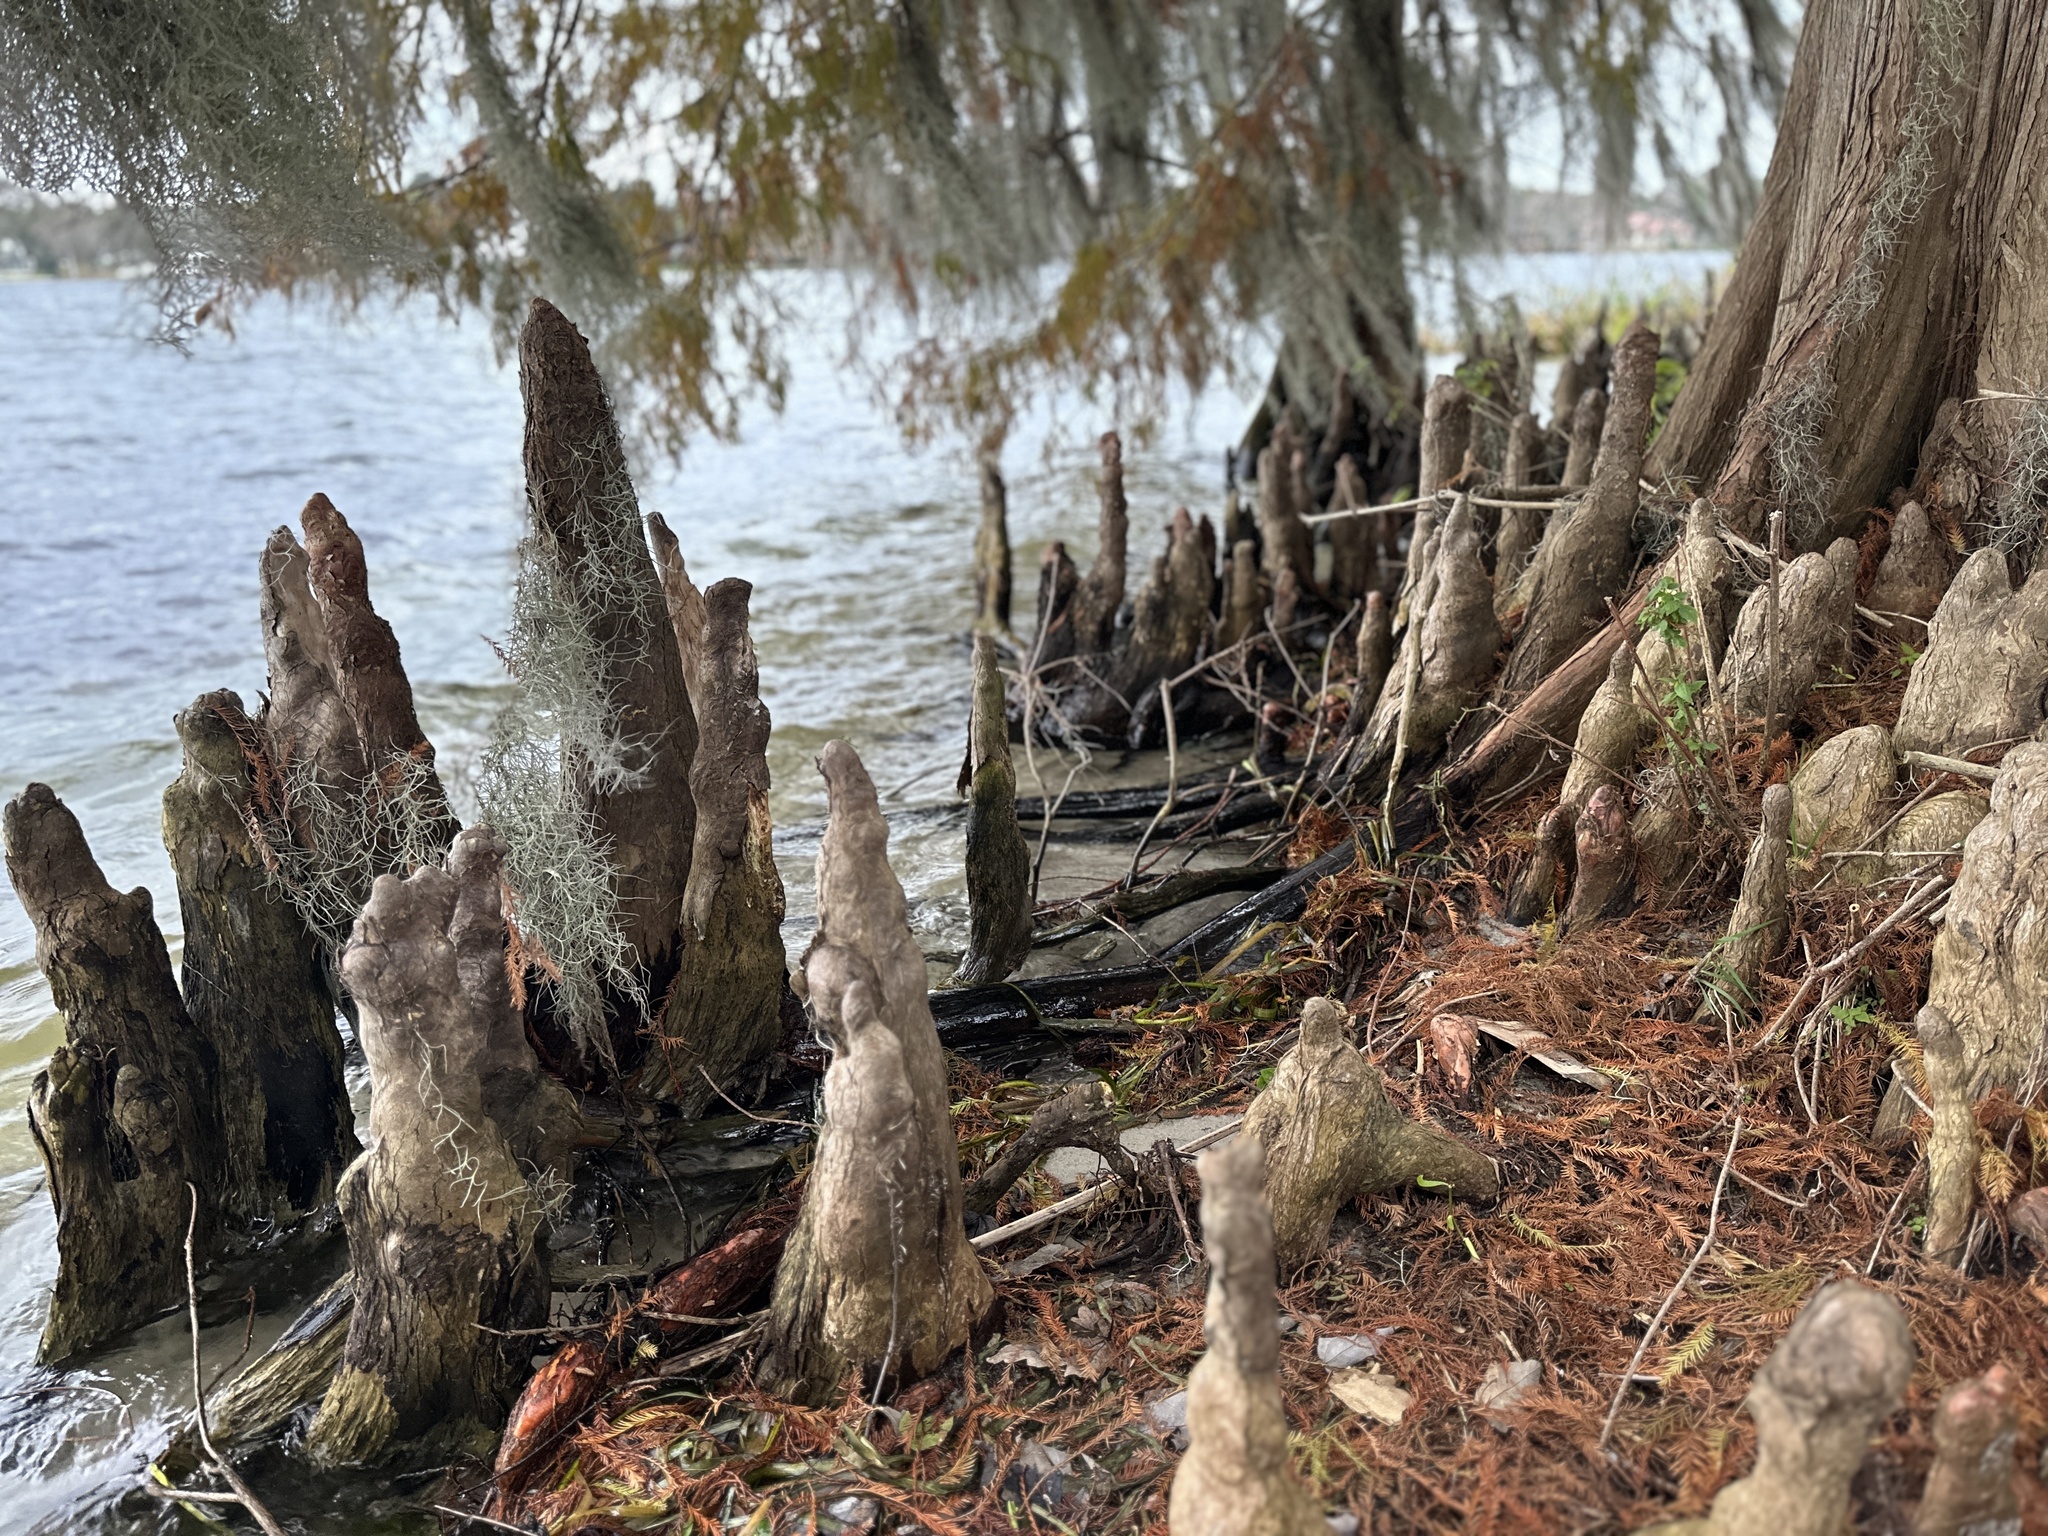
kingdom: Plantae
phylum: Tracheophyta
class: Pinopsida
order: Pinales
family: Cupressaceae
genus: Taxodium
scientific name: Taxodium distichum
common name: Bald cypress
